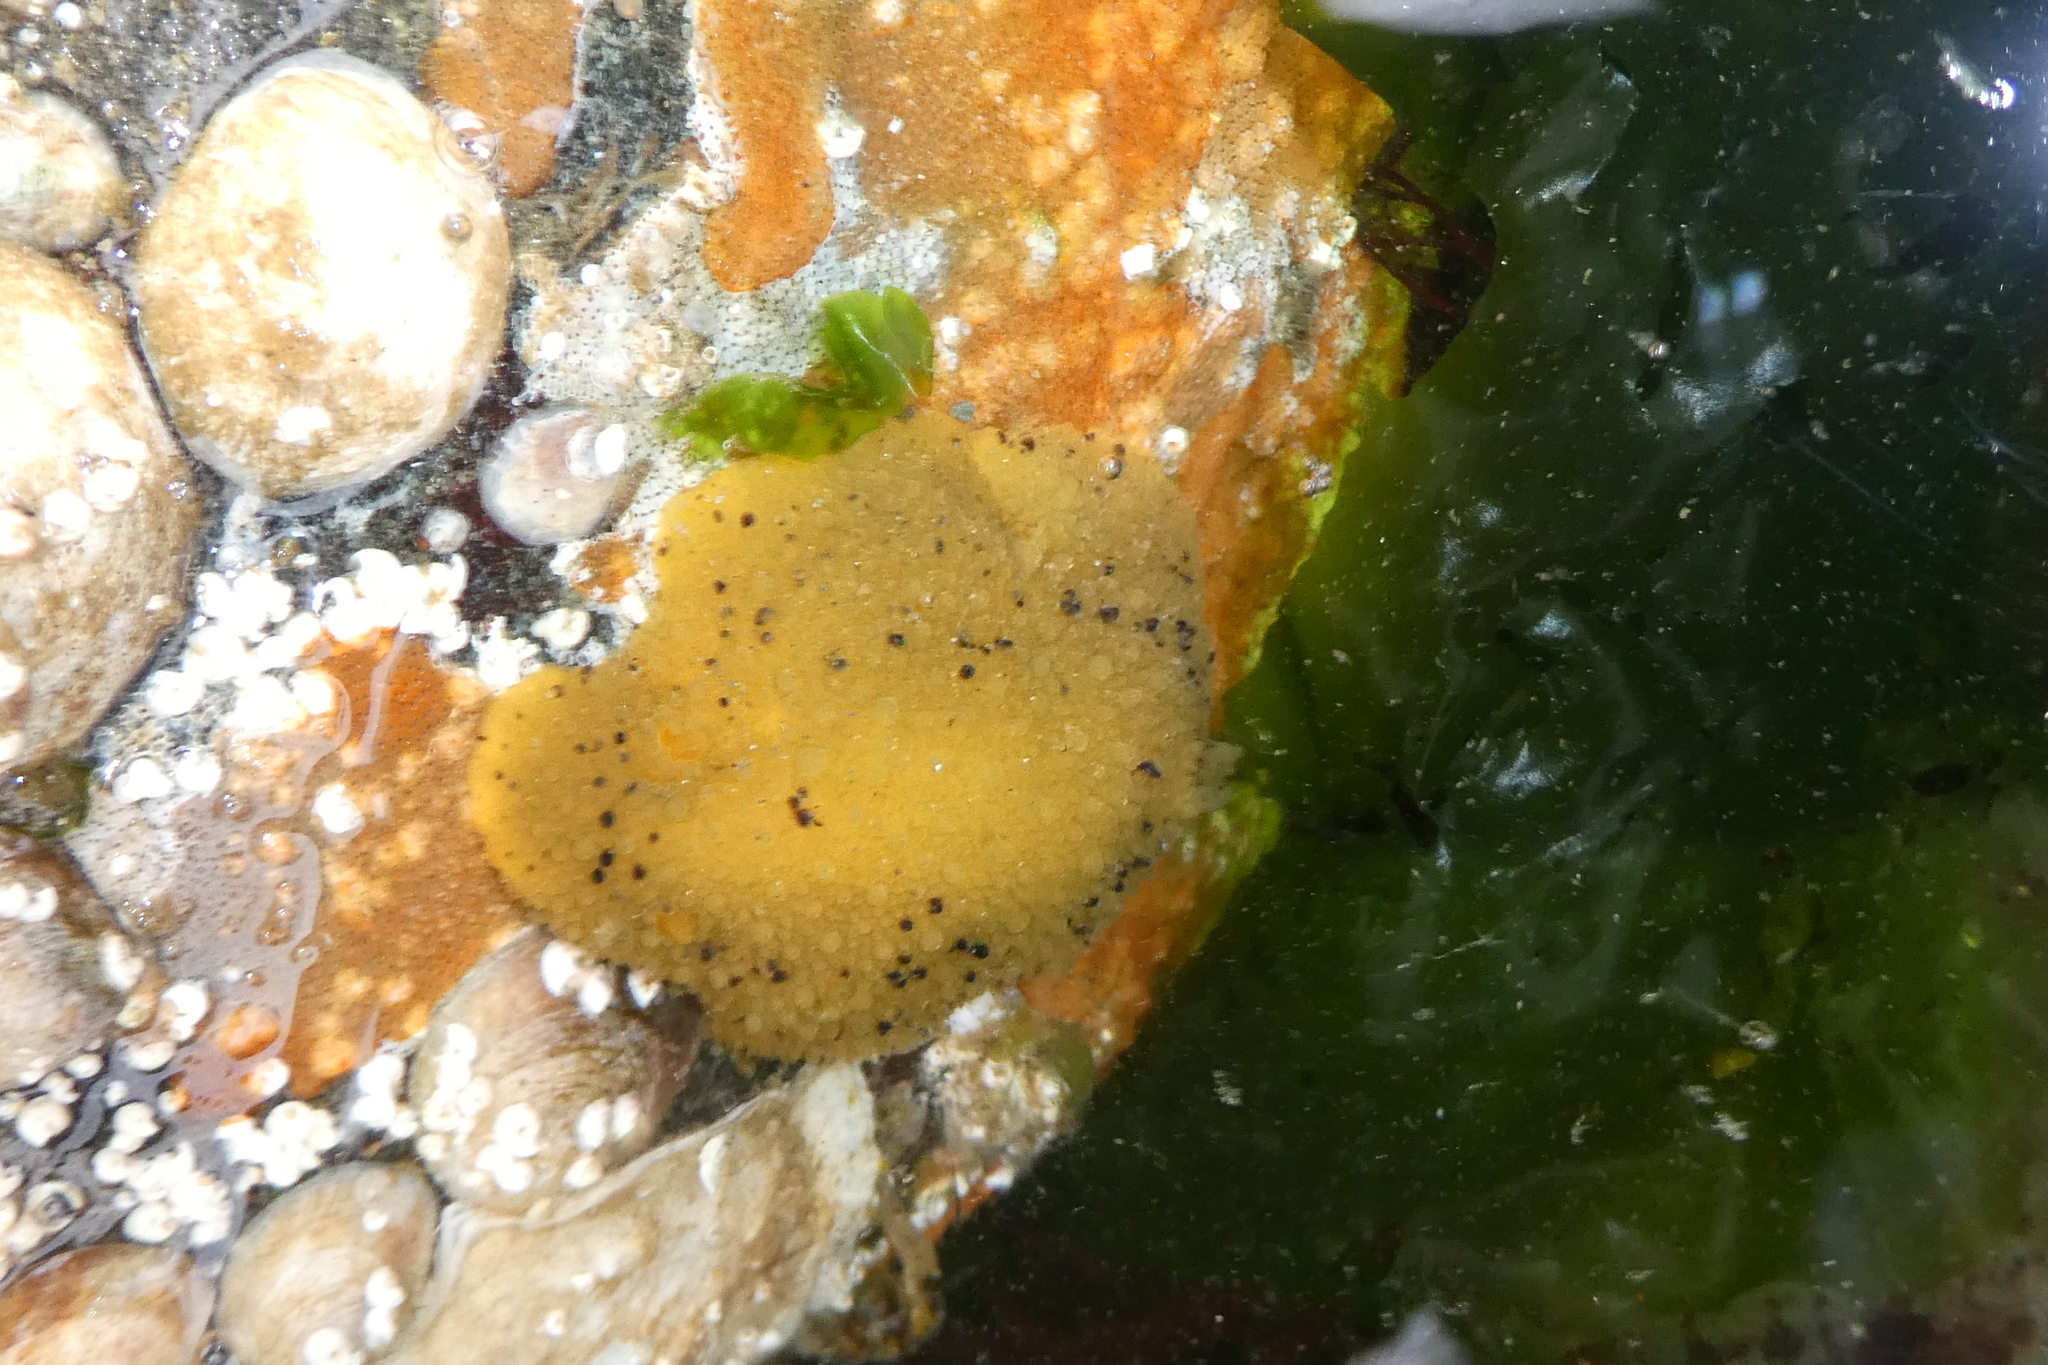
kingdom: Animalia
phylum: Mollusca
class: Gastropoda
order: Nudibranchia
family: Dorididae
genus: Doris
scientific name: Doris montereyensis
